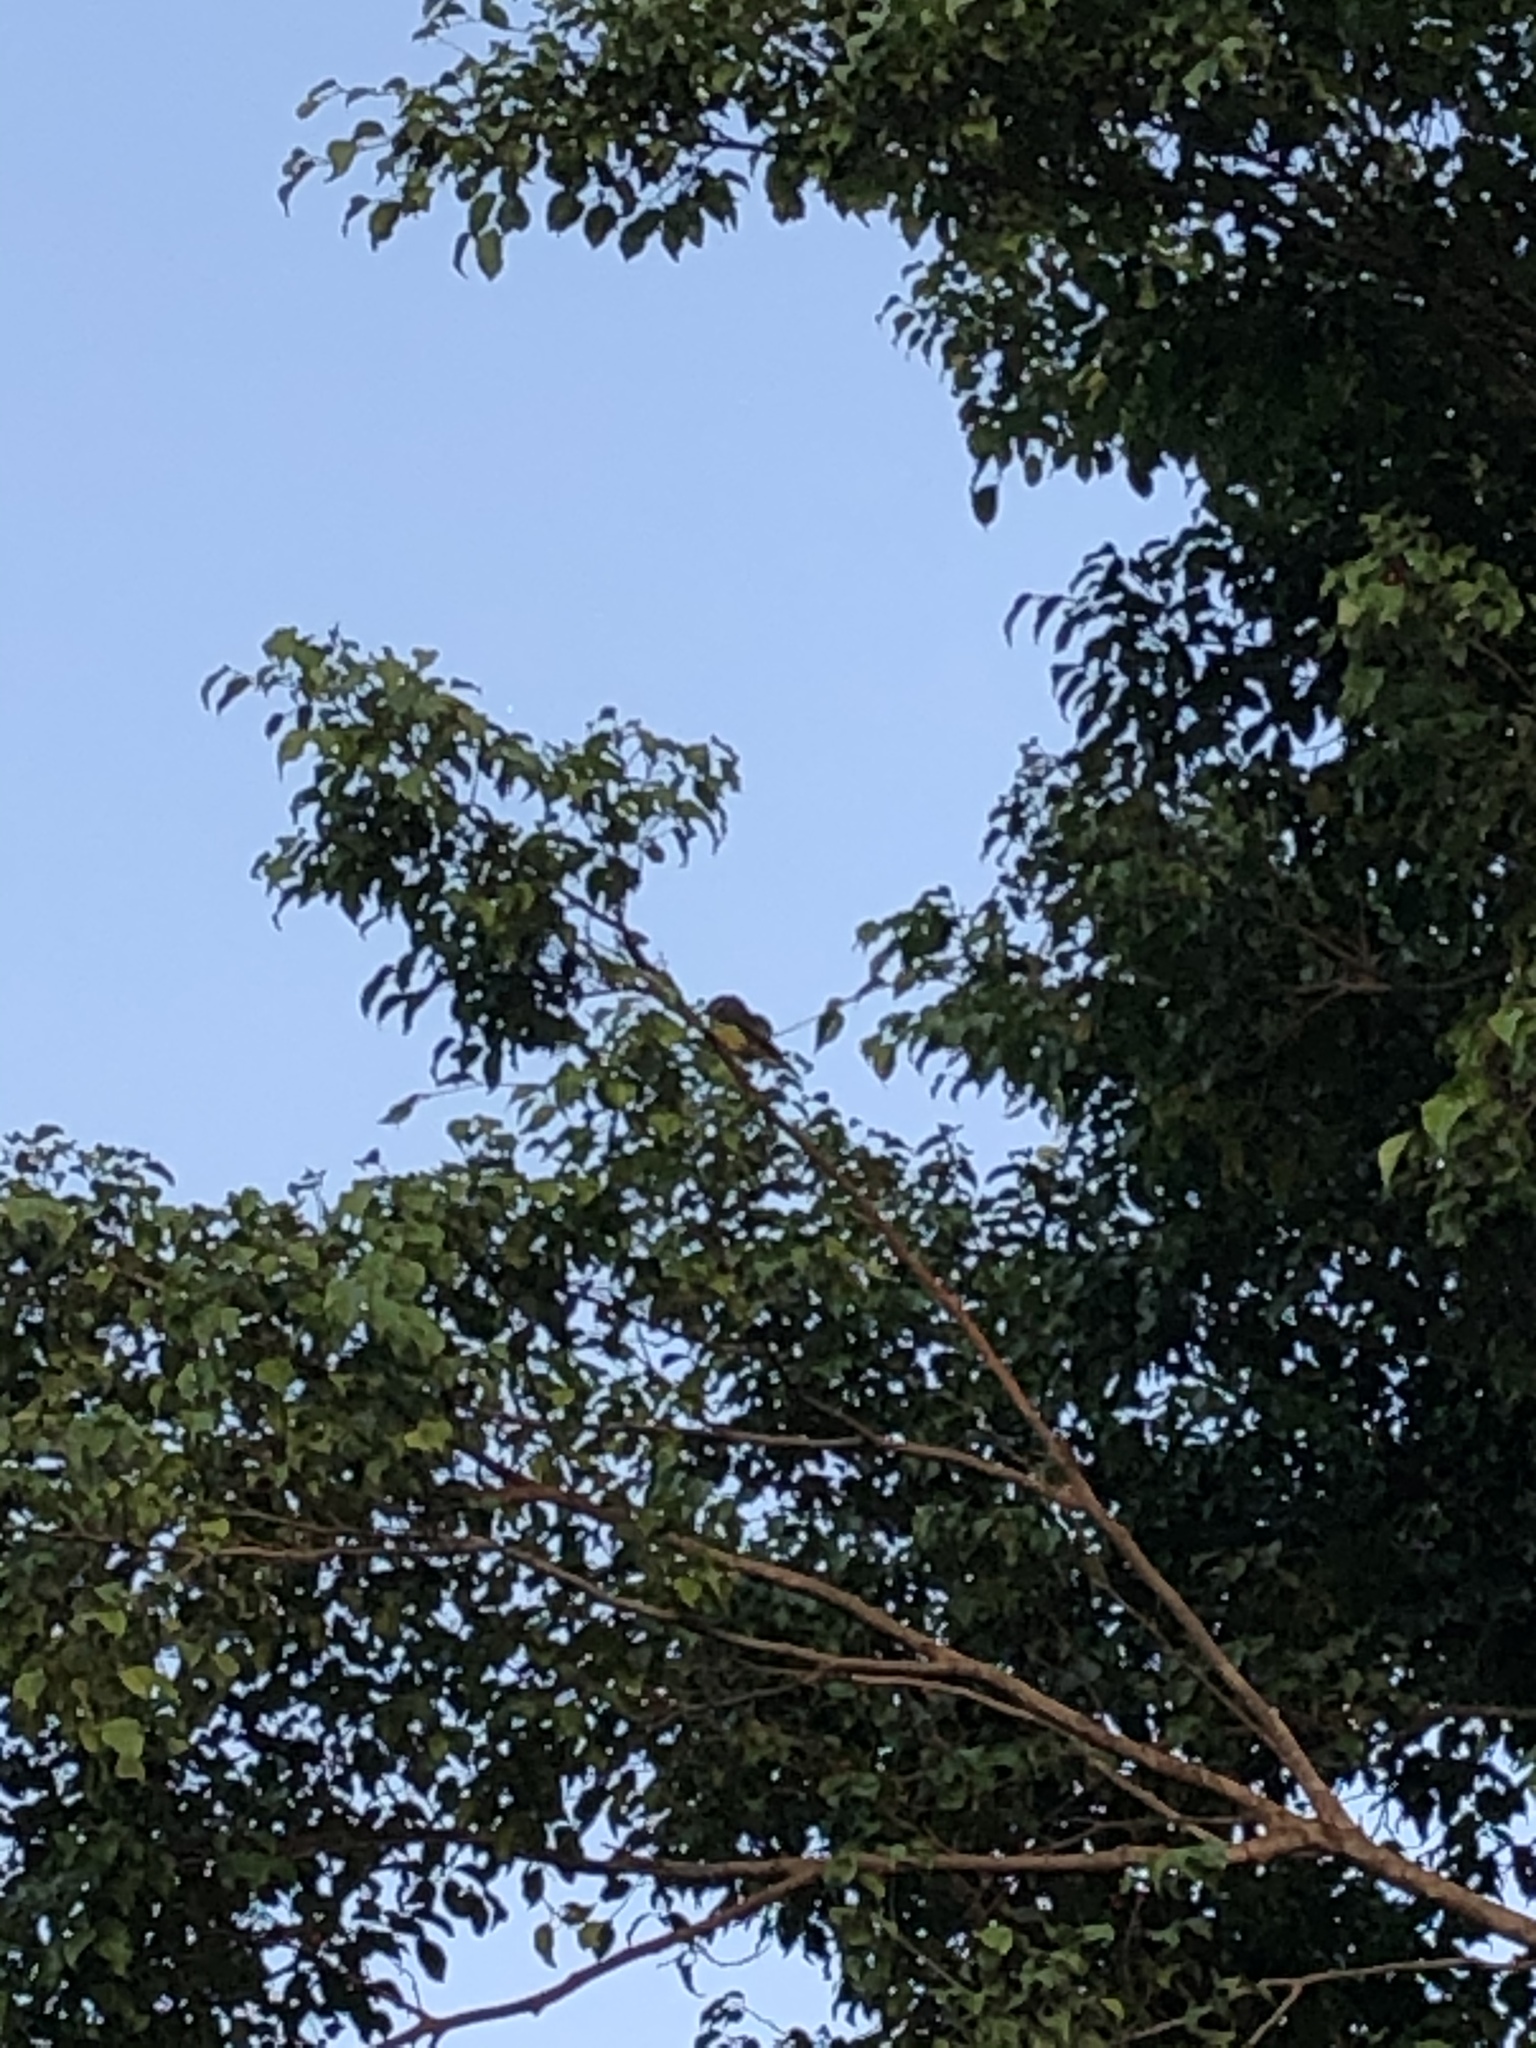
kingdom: Animalia
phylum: Chordata
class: Aves
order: Passeriformes
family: Tyrannidae
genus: Tyrannus
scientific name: Tyrannus melancholicus
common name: Tropical kingbird
